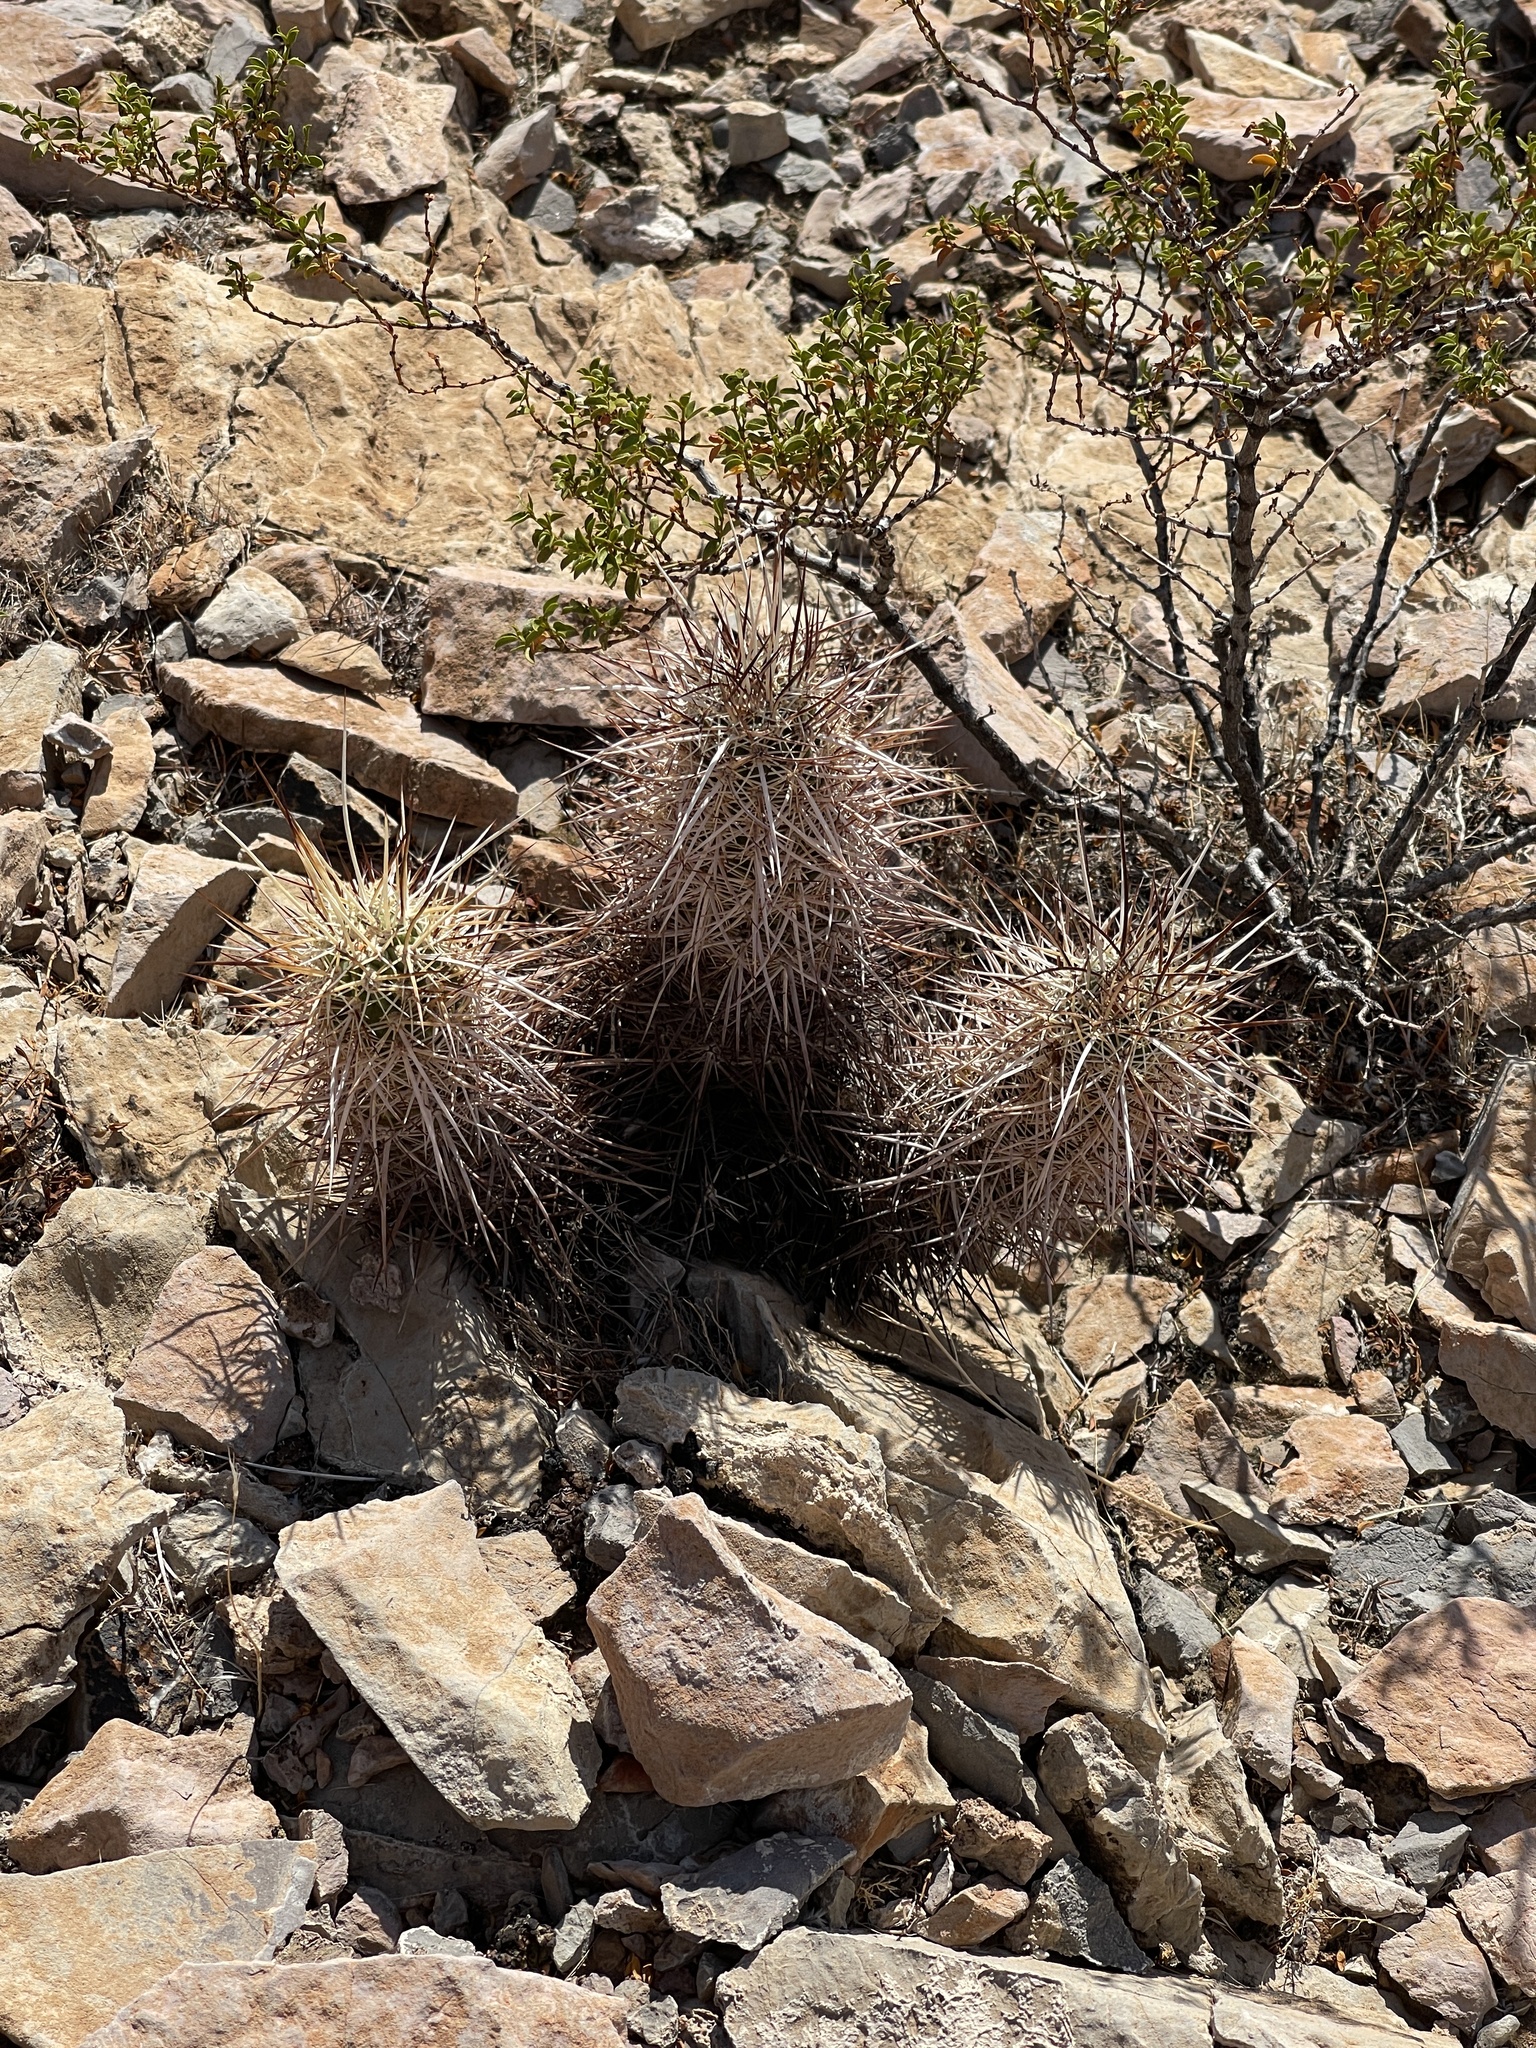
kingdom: Plantae
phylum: Tracheophyta
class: Magnoliopsida
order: Caryophyllales
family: Cactaceae
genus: Echinocereus
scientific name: Echinocereus engelmannii
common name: Engelmann's hedgehog cactus
